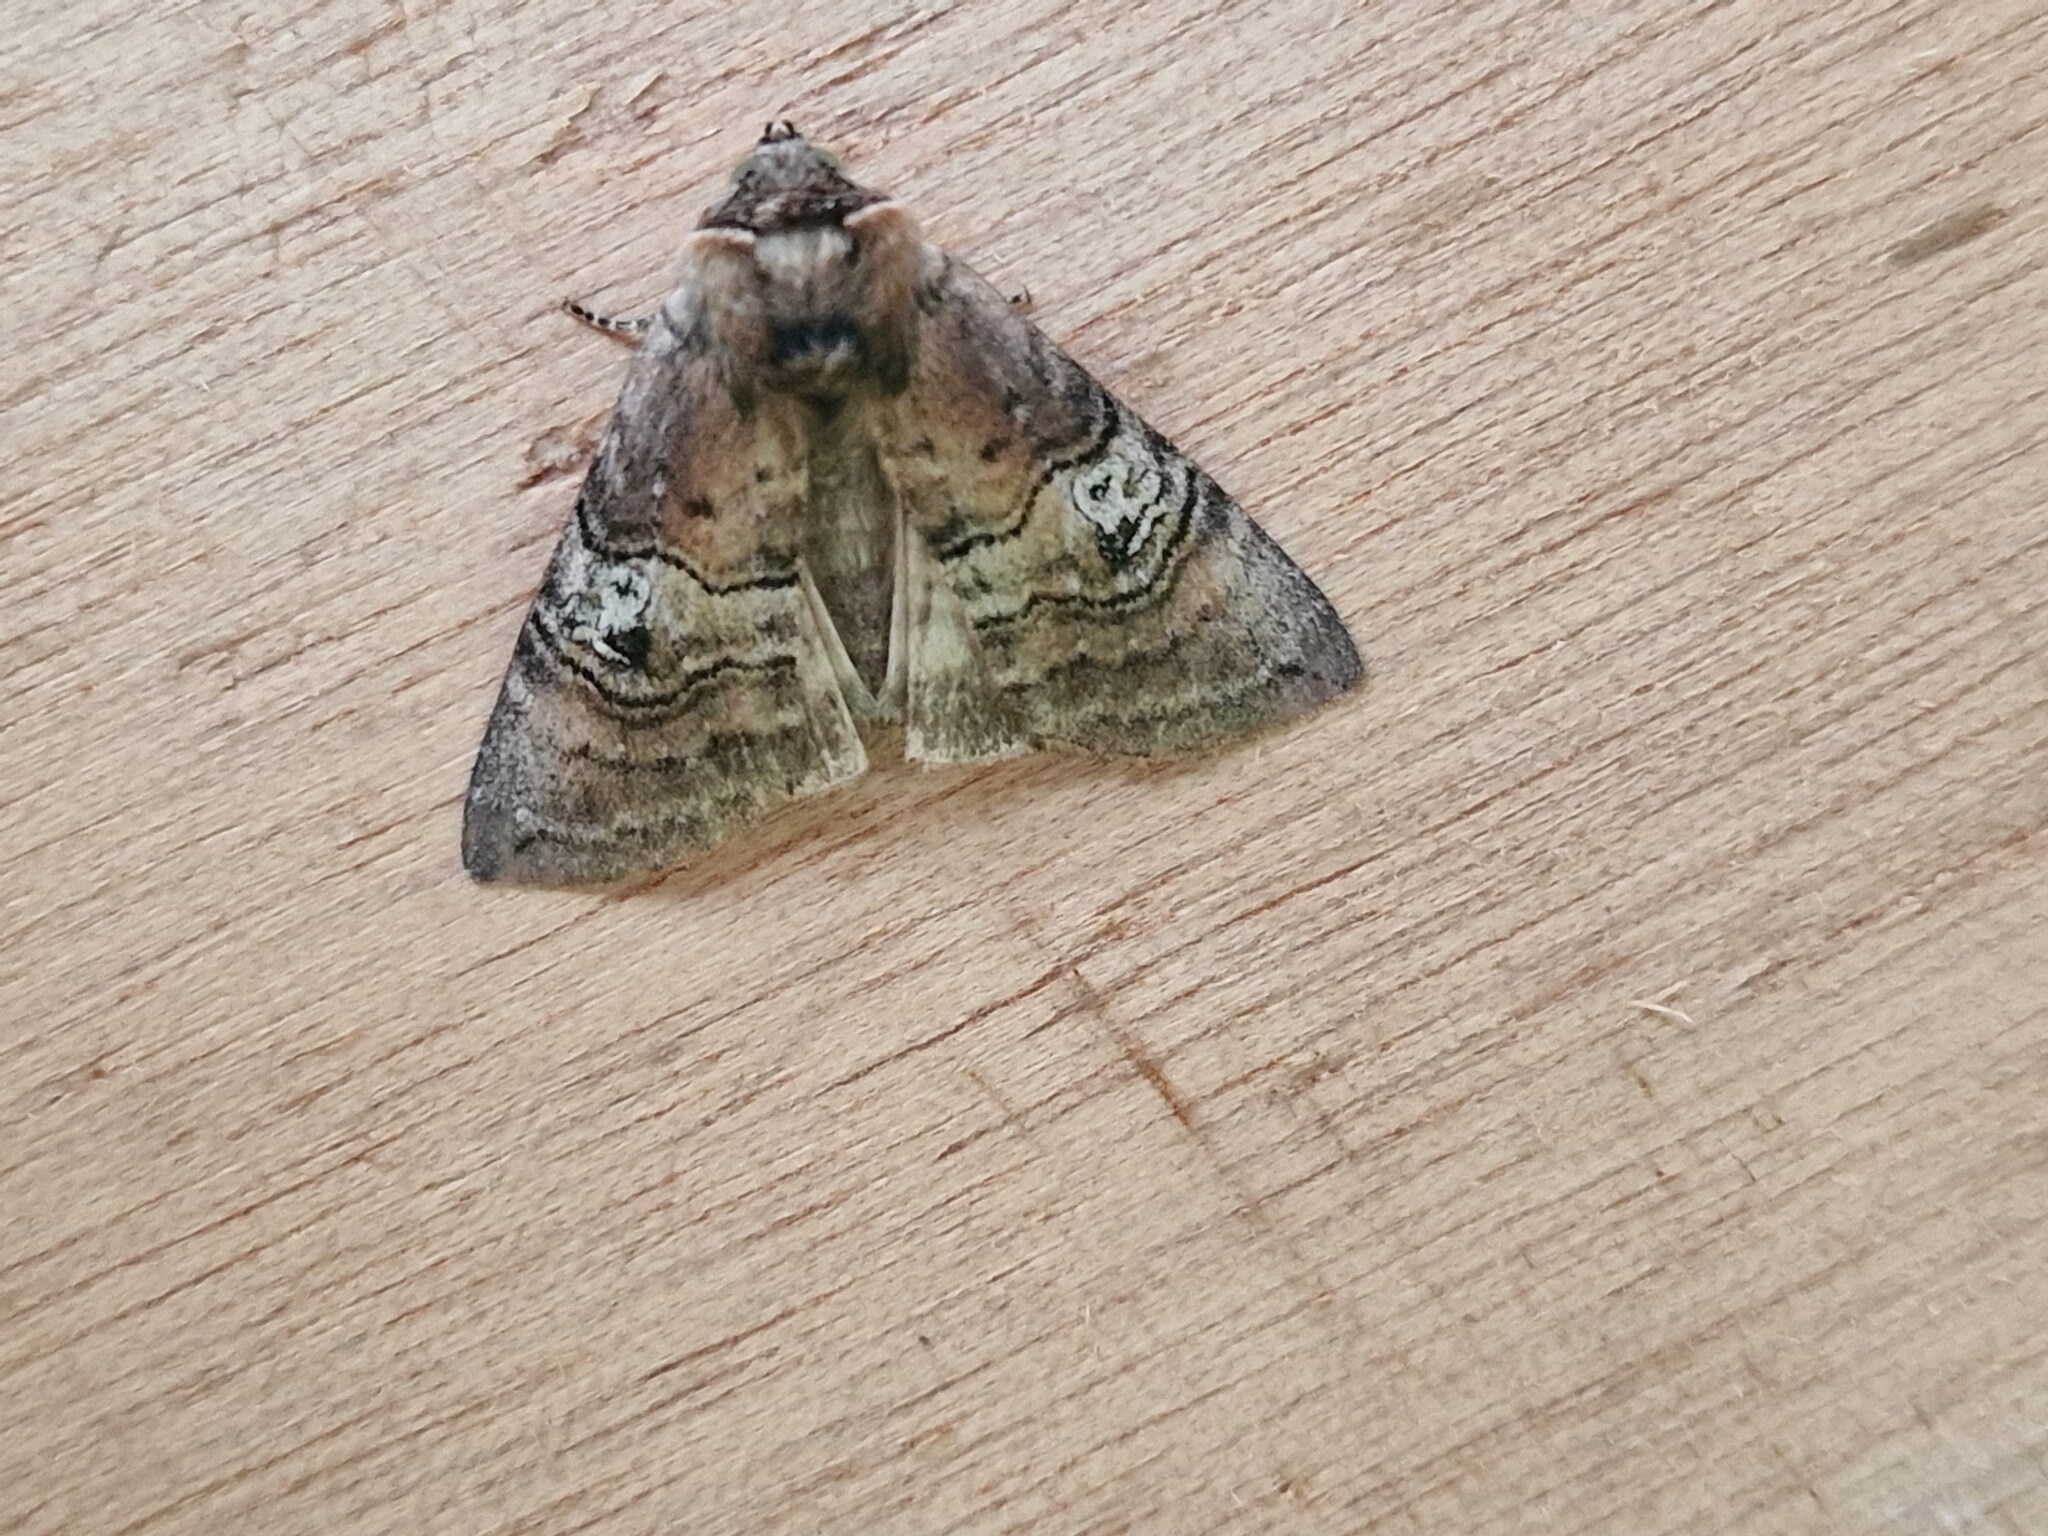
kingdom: Animalia
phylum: Arthropoda
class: Insecta
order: Lepidoptera
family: Drepanidae
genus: Tethea
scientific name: Tethea ocularis
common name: Figure of eighty
